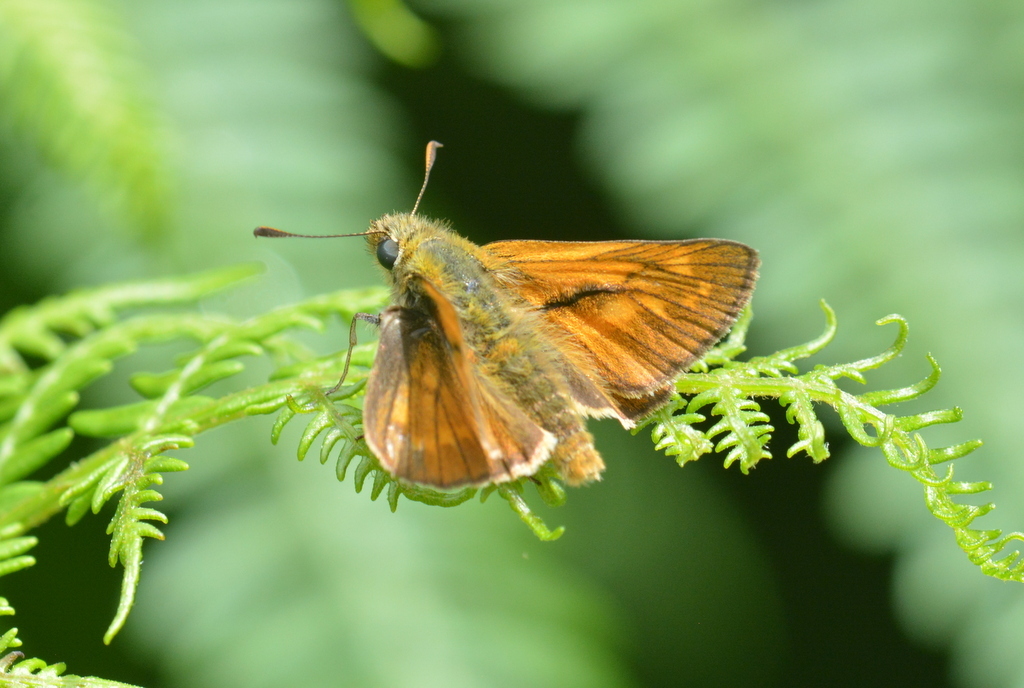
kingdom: Animalia
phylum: Arthropoda
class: Insecta
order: Lepidoptera
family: Hesperiidae
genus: Ochlodes
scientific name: Ochlodes venata
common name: Large skipper
